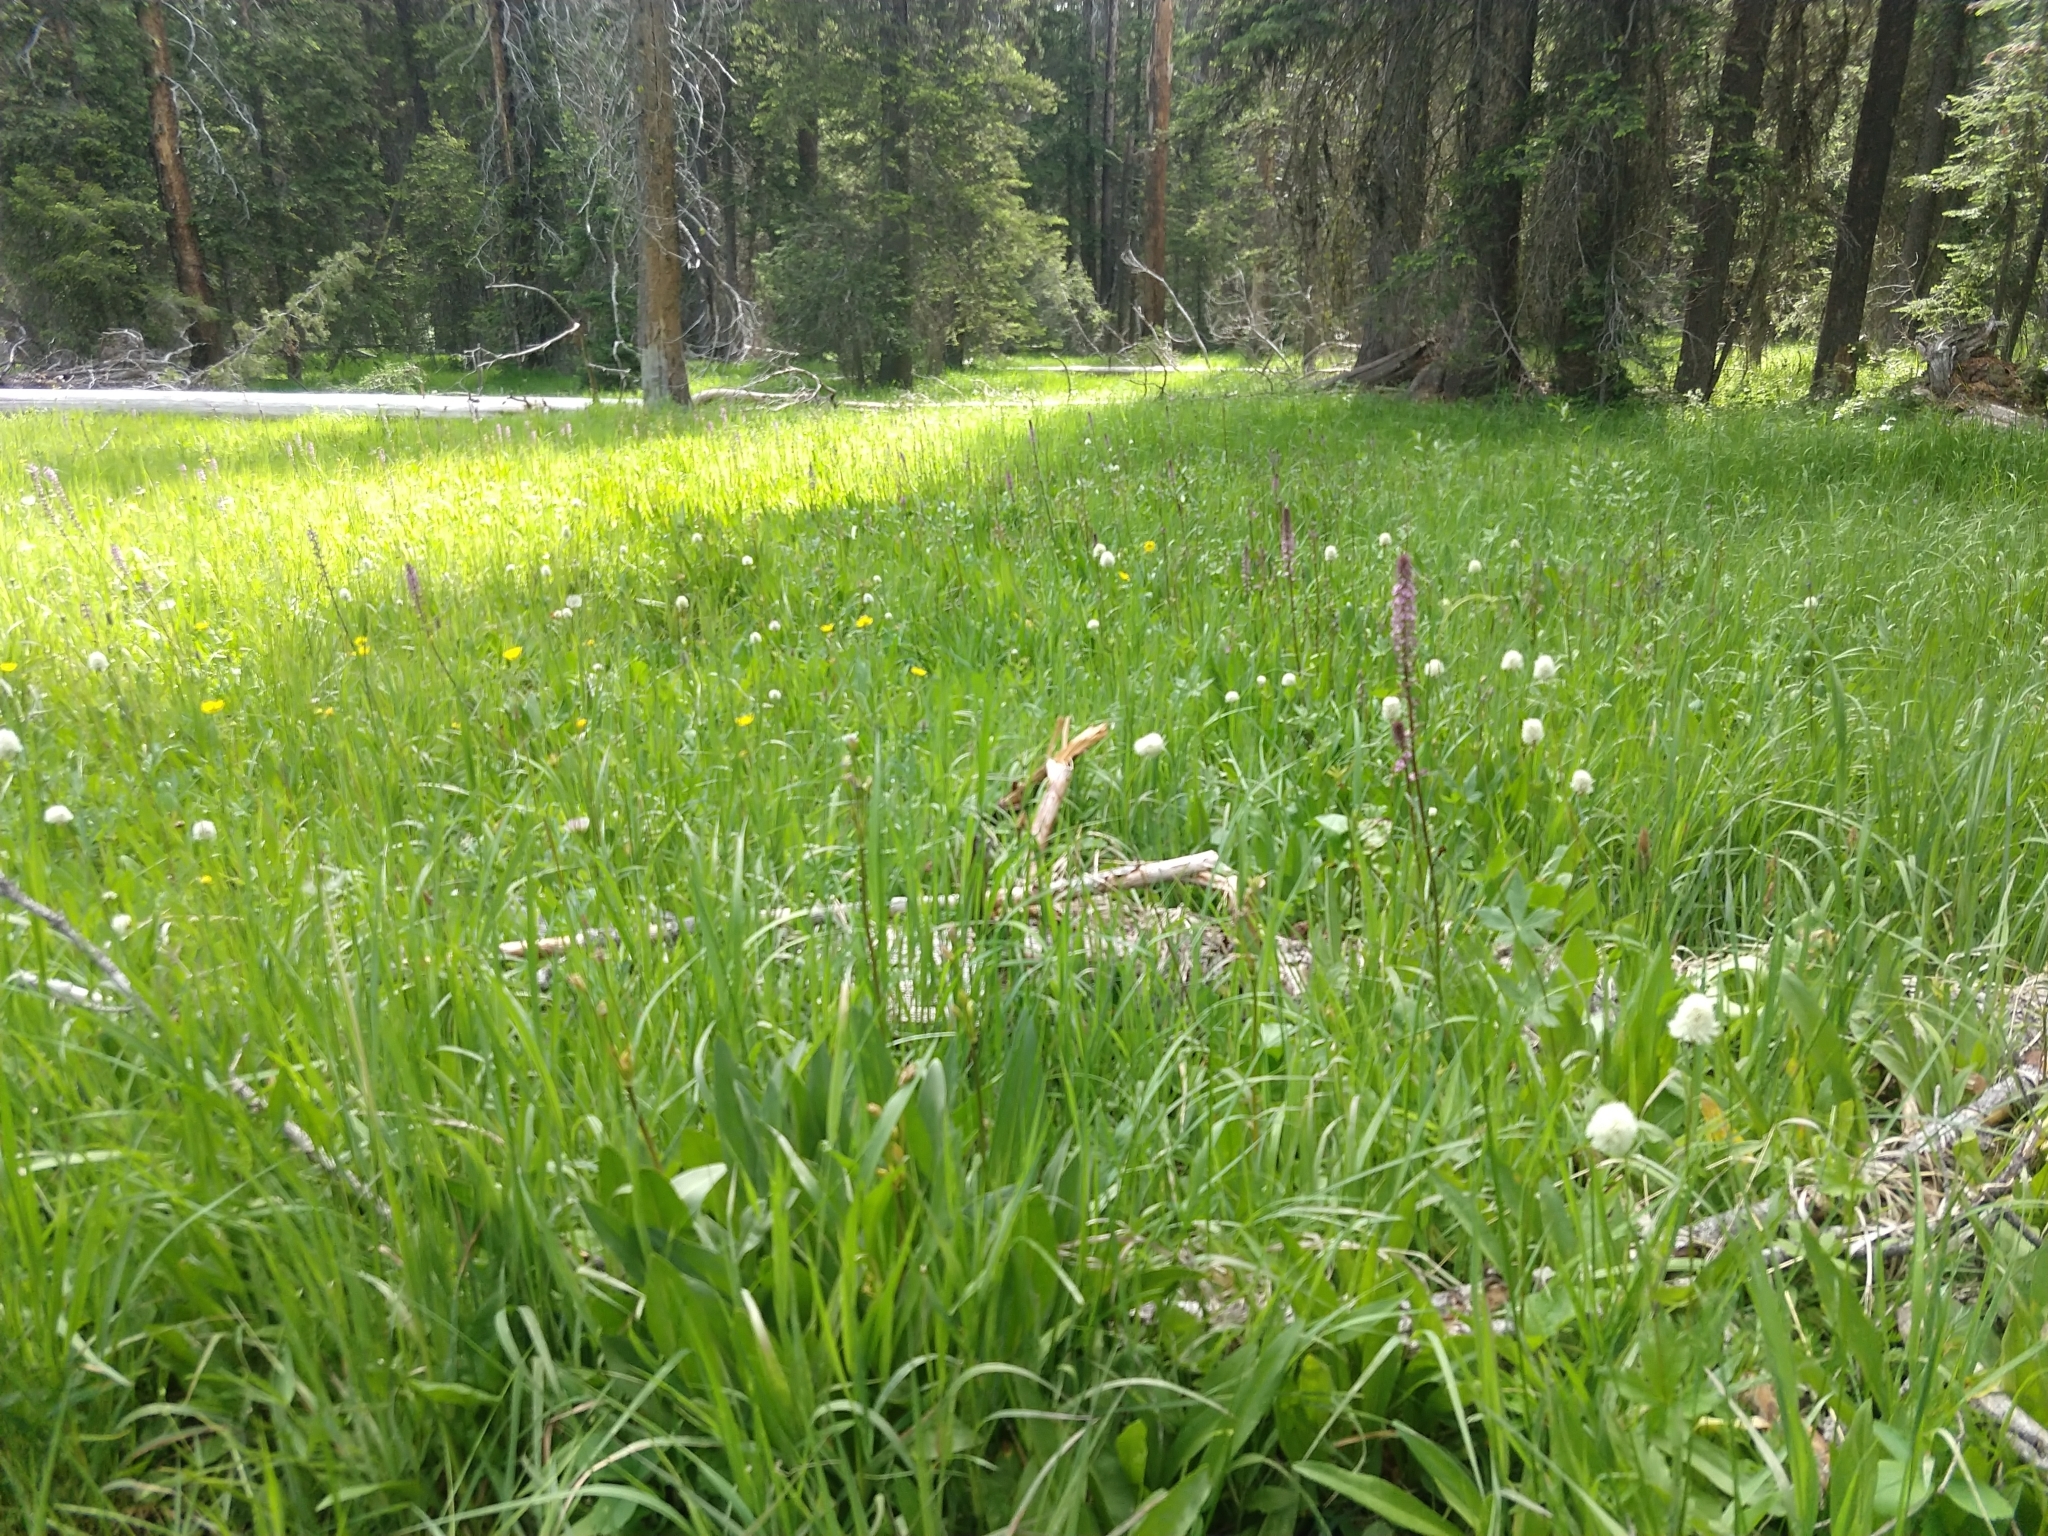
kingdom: Plantae
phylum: Tracheophyta
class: Magnoliopsida
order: Lamiales
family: Orobanchaceae
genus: Pedicularis
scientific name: Pedicularis groenlandica
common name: Elephant's-head
